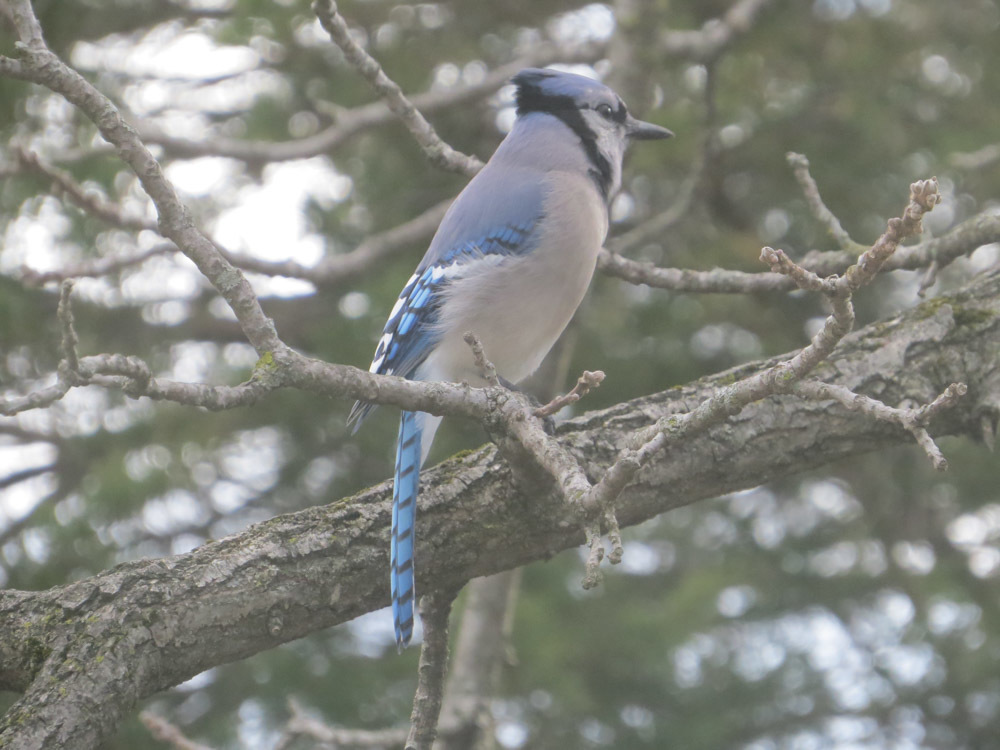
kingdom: Animalia
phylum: Chordata
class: Aves
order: Passeriformes
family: Corvidae
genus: Cyanocitta
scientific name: Cyanocitta cristata
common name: Blue jay
